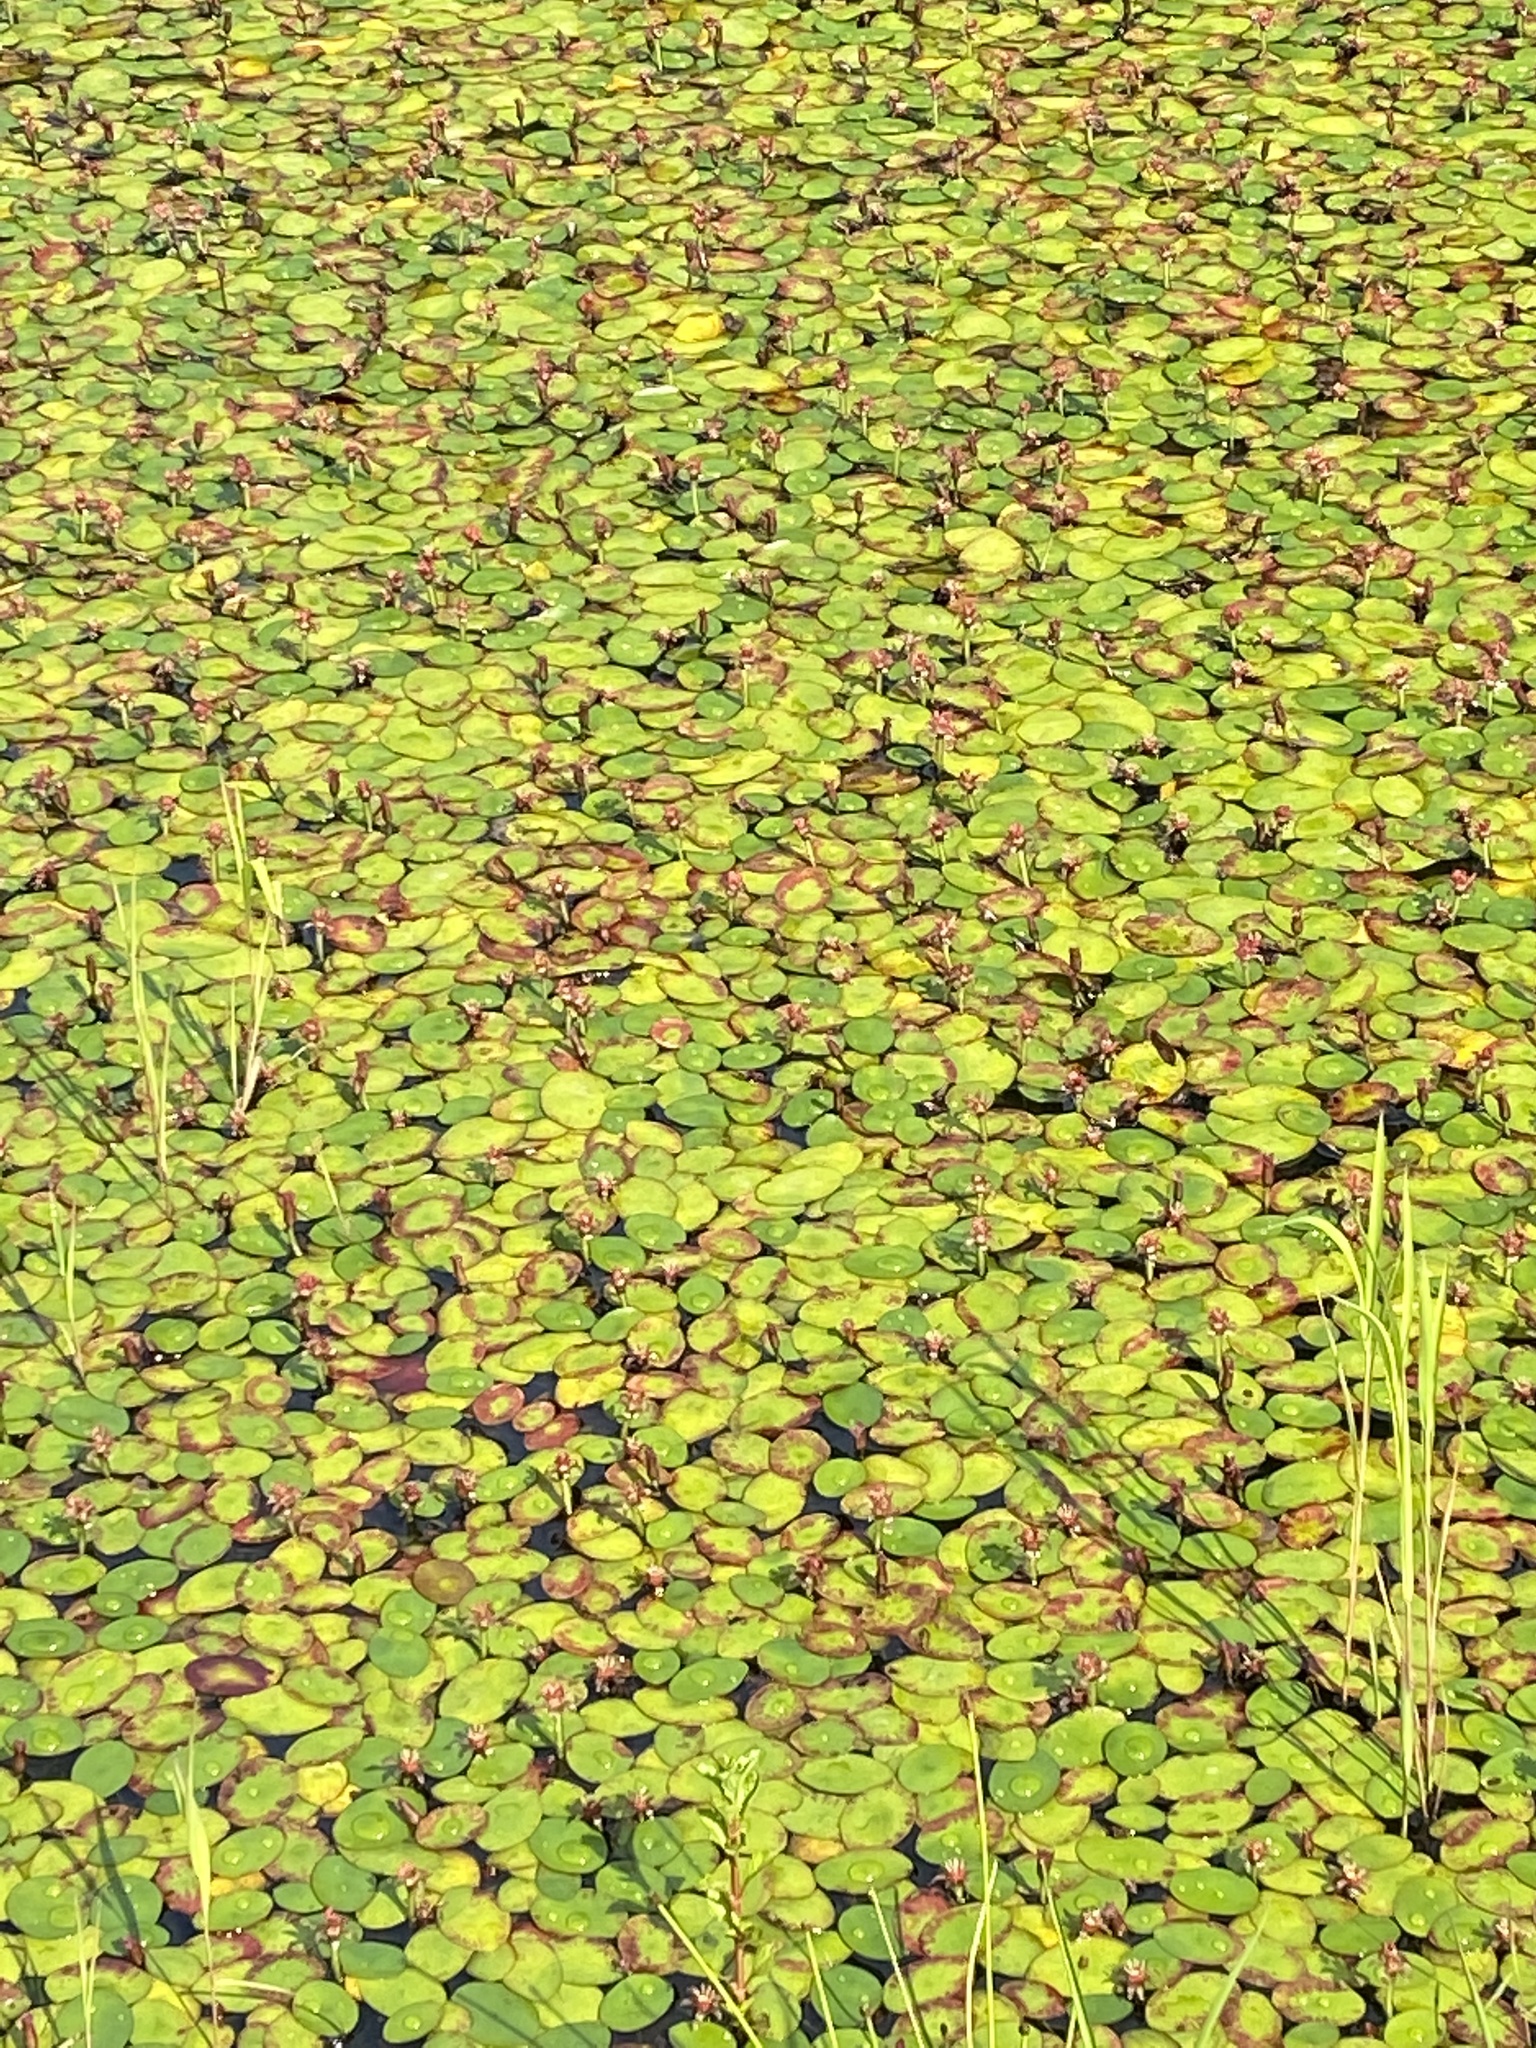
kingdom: Plantae
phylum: Tracheophyta
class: Magnoliopsida
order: Nymphaeales
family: Cabombaceae
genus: Brasenia
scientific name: Brasenia schreberi
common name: Water-shield
